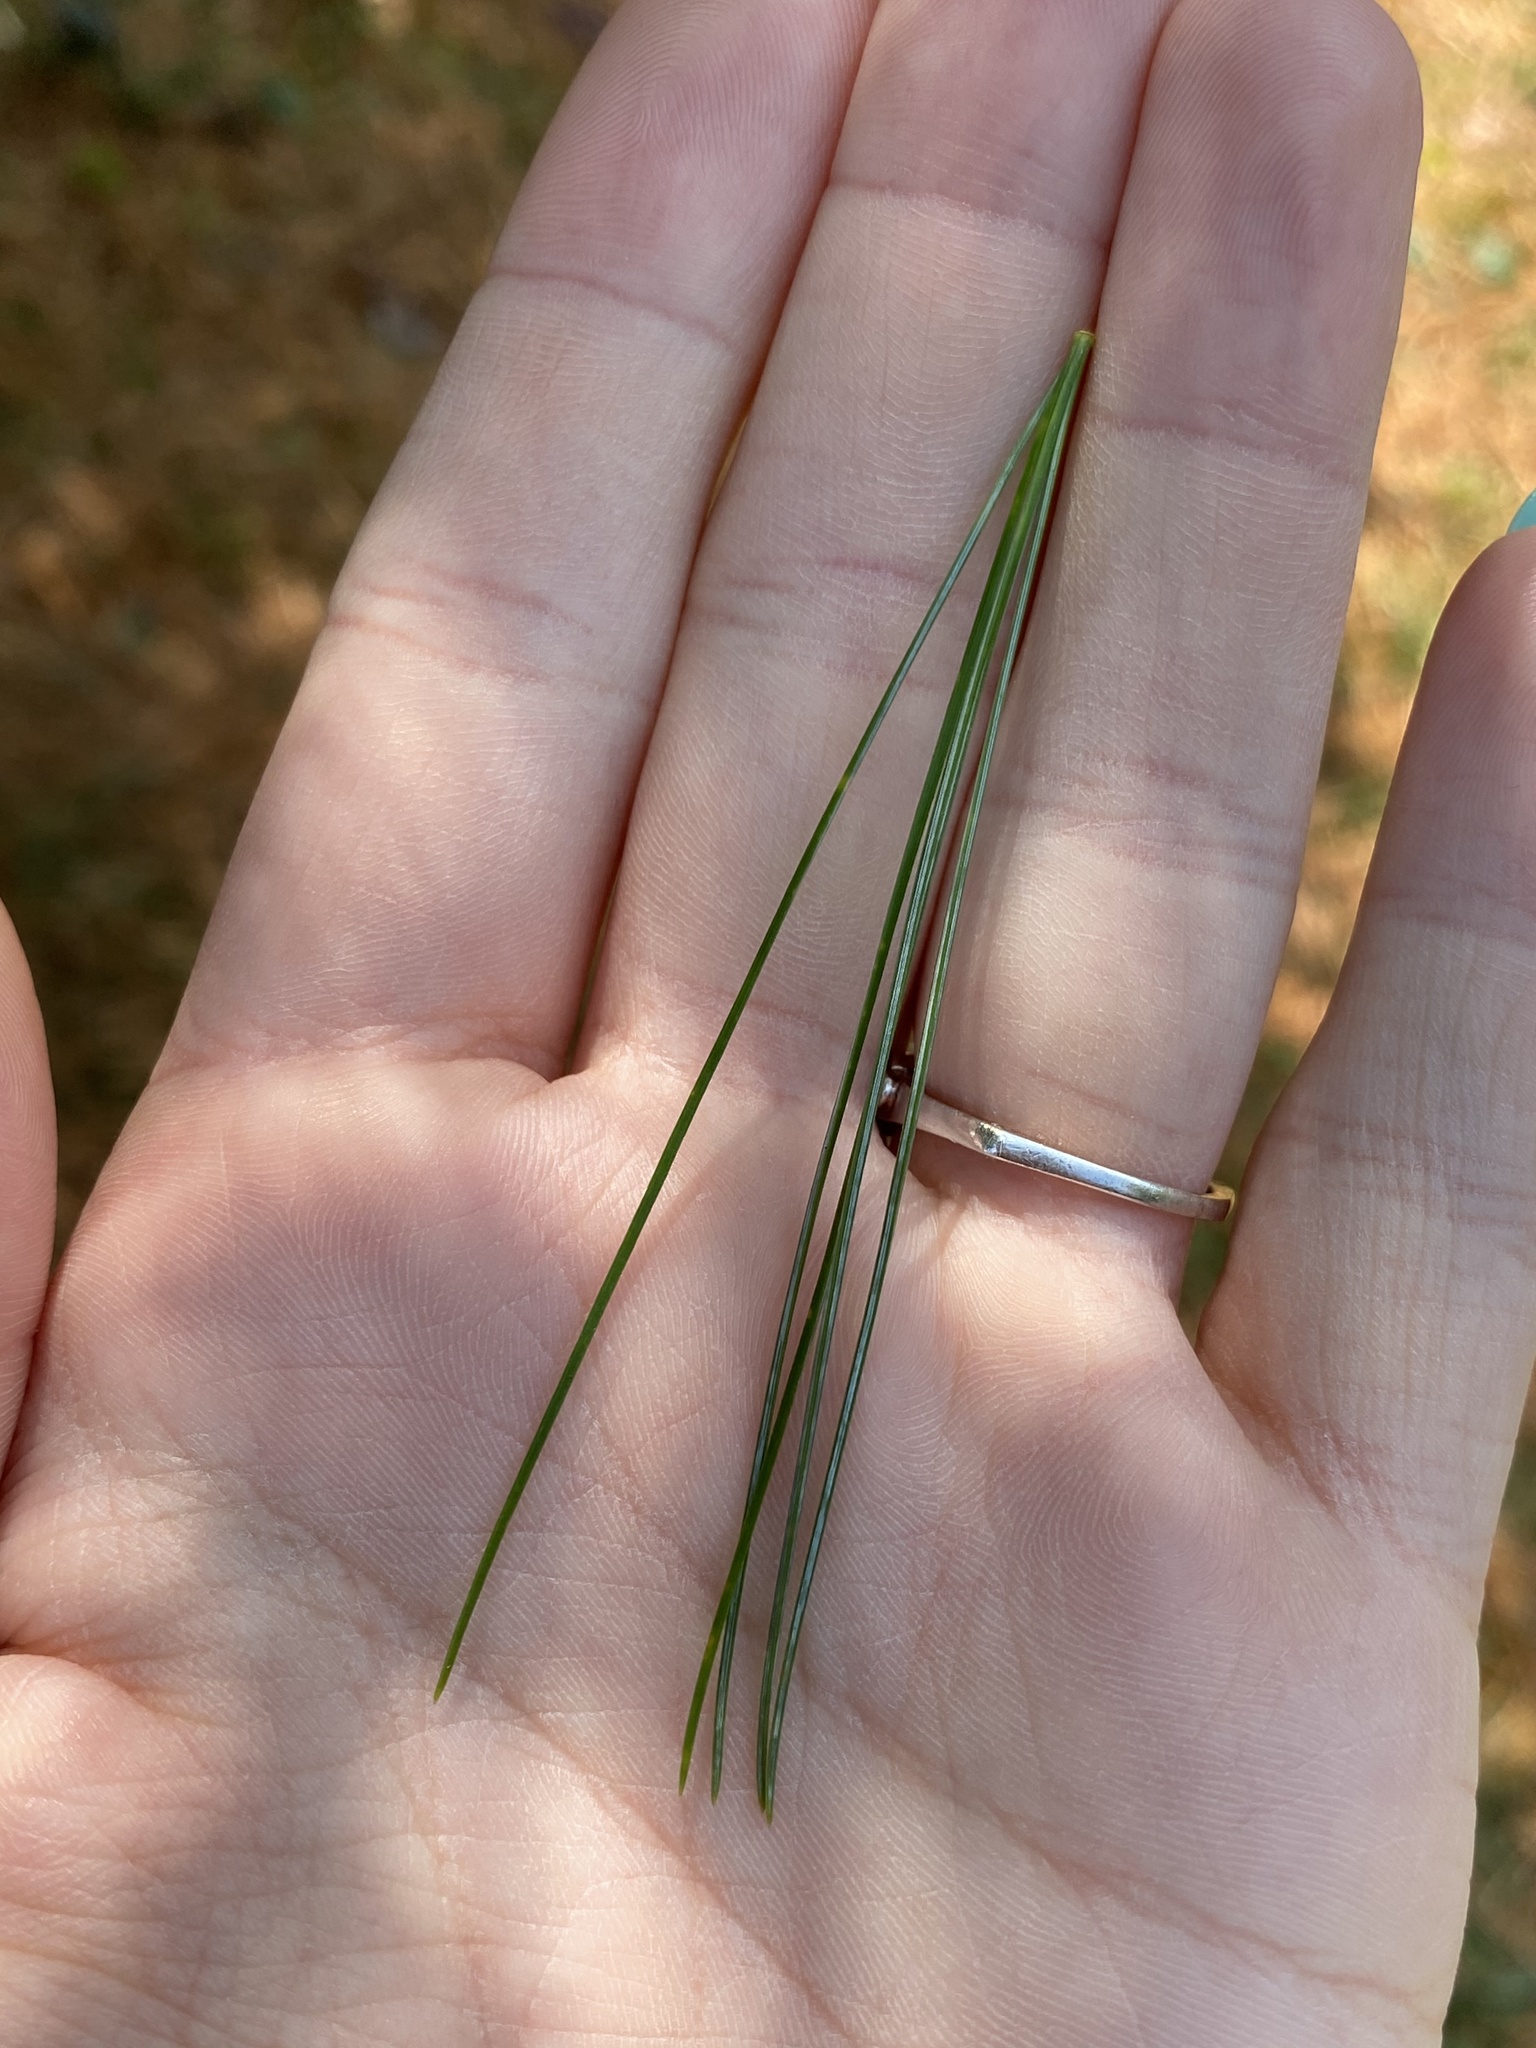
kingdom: Plantae
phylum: Tracheophyta
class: Pinopsida
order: Pinales
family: Pinaceae
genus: Pinus
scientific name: Pinus strobus
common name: Weymouth pine
